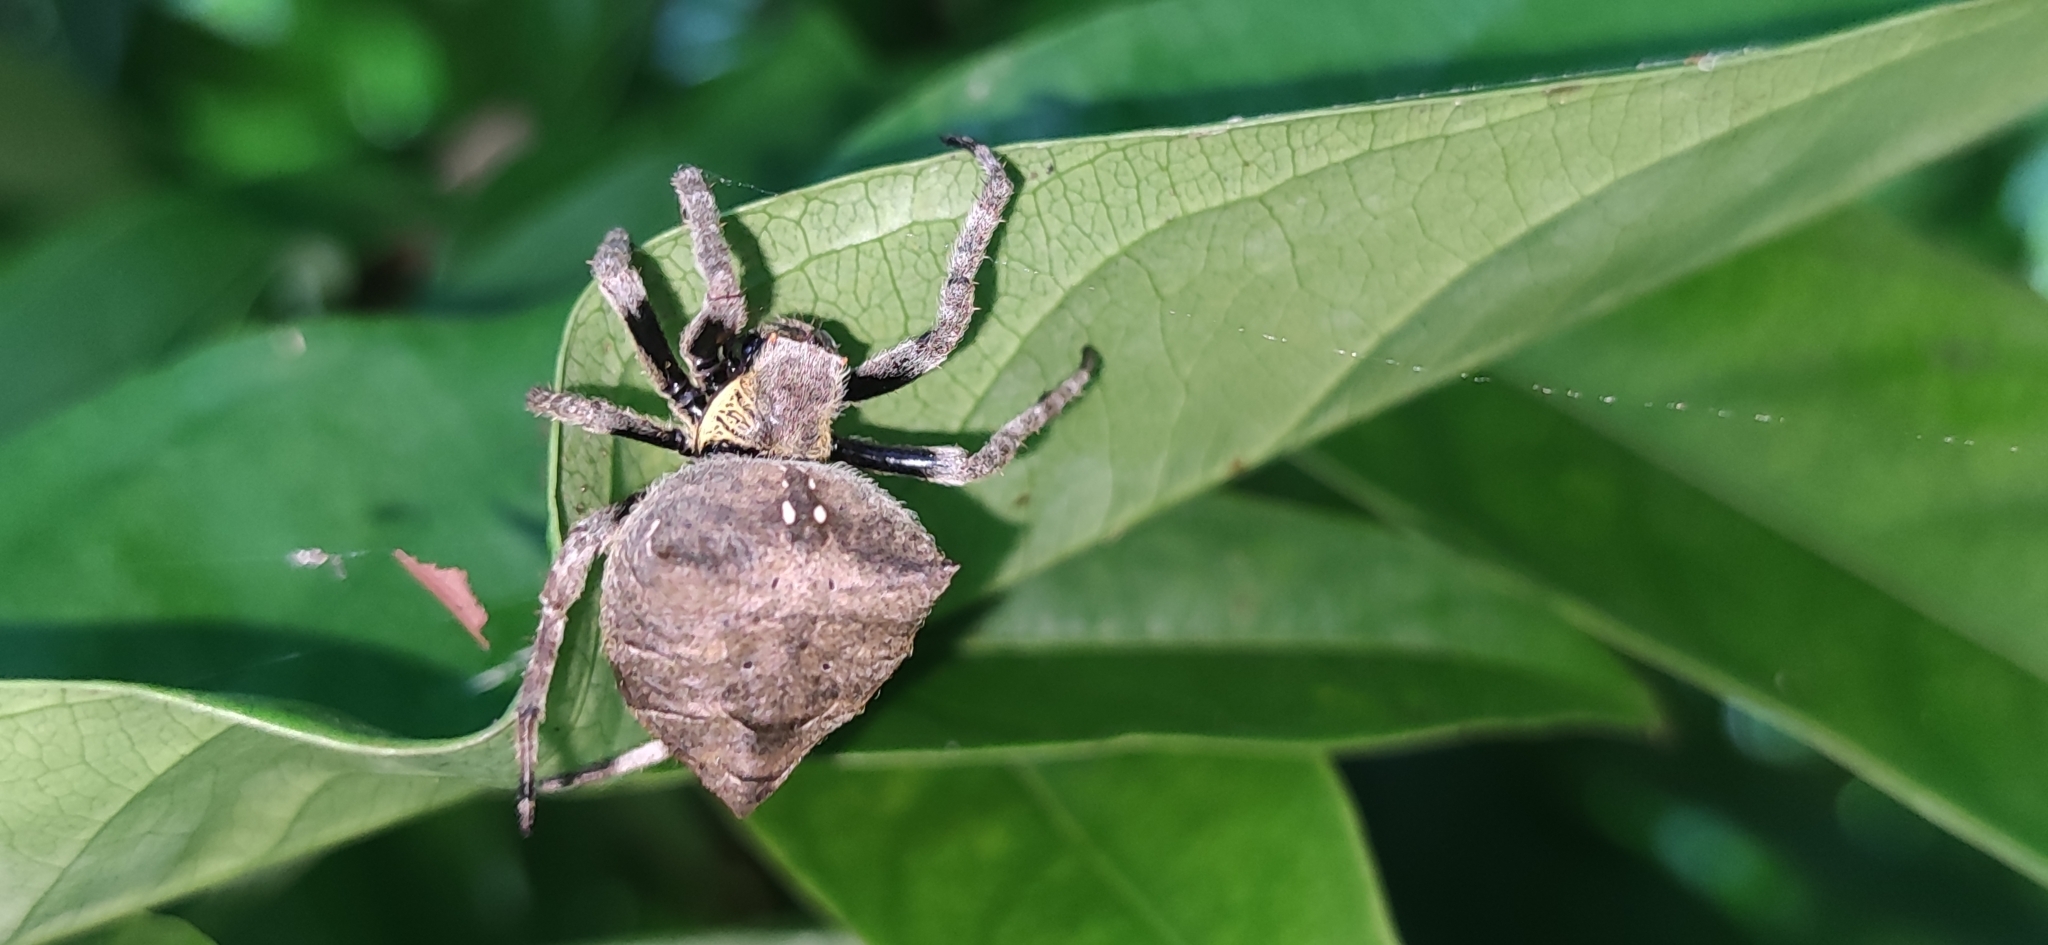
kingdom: Animalia
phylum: Arthropoda
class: Arachnida
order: Araneae
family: Araneidae
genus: Parawixia
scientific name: Parawixia dehaani
